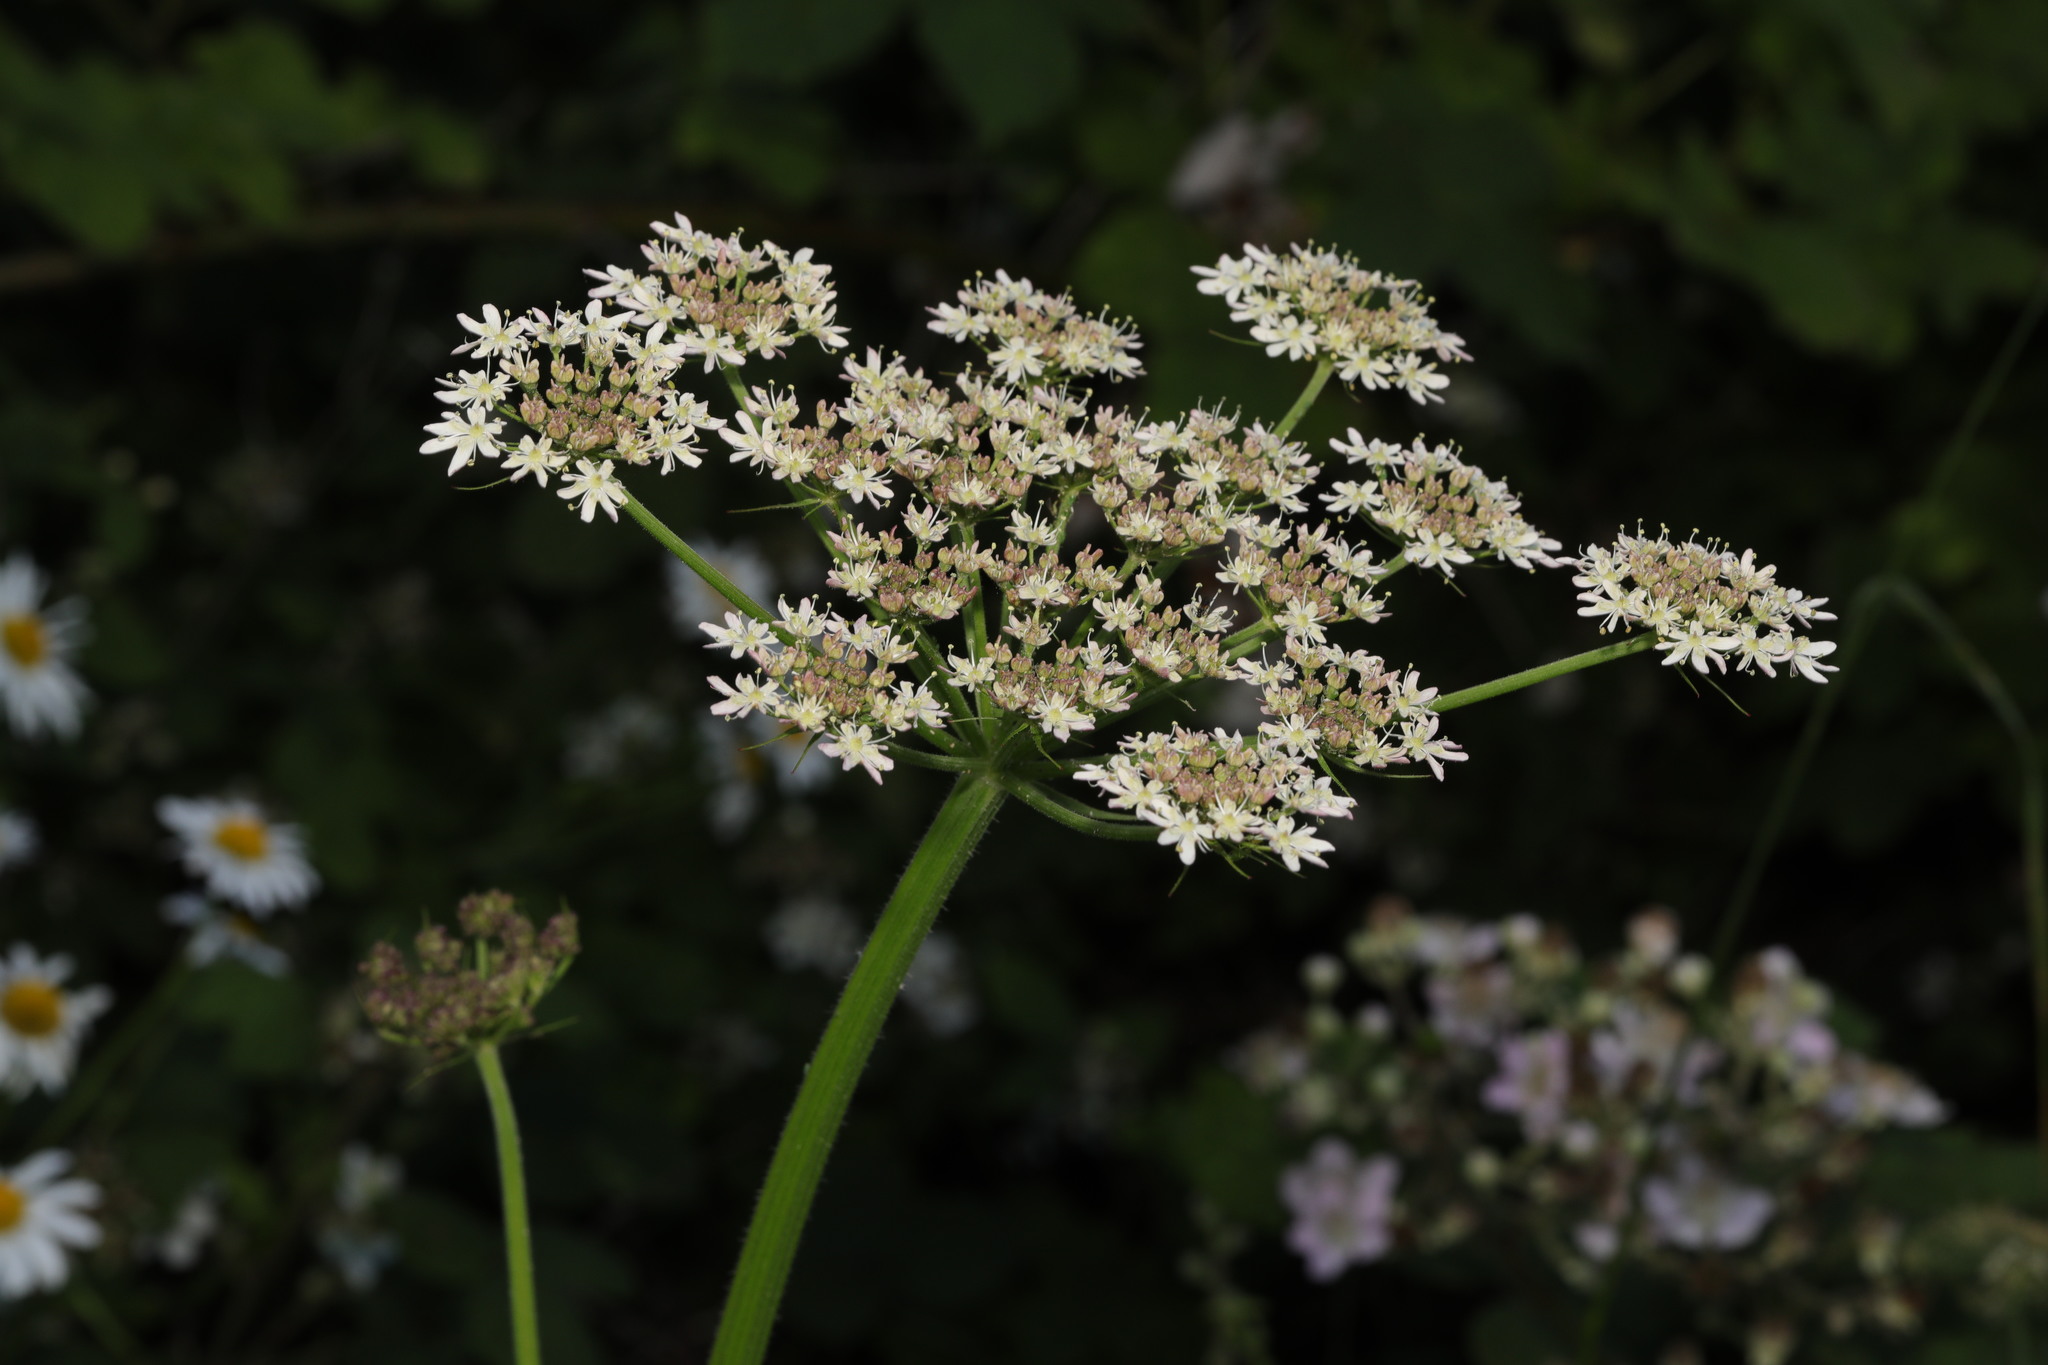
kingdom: Plantae
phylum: Tracheophyta
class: Magnoliopsida
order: Apiales
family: Apiaceae
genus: Heracleum
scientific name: Heracleum sphondylium
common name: Hogweed
